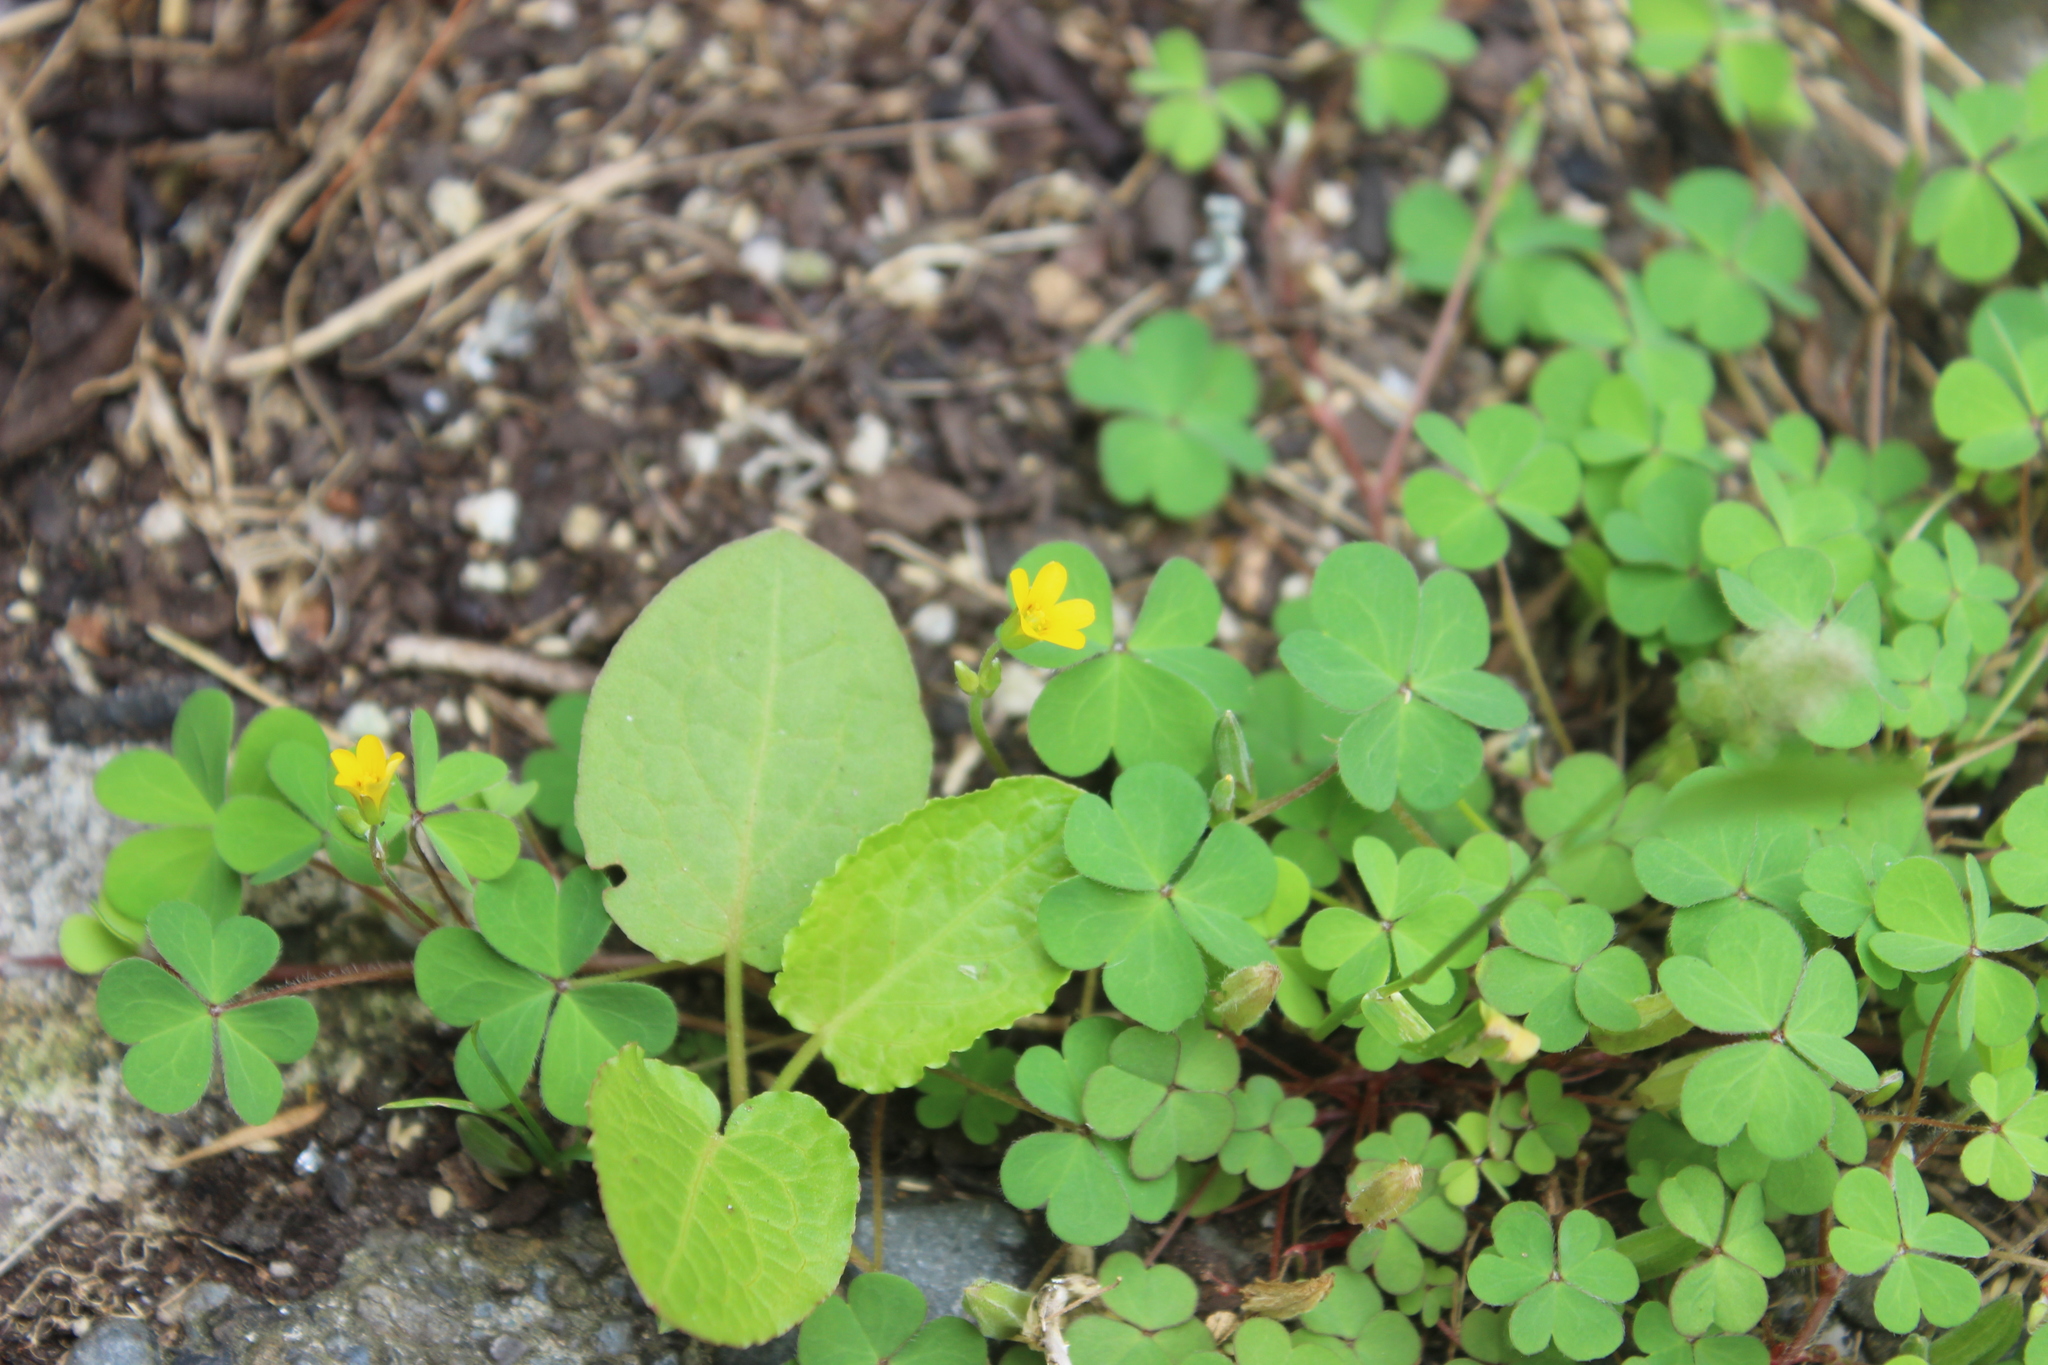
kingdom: Plantae
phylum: Tracheophyta
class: Magnoliopsida
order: Caryophyllales
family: Polygonaceae
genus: Rumex
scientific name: Rumex obtusifolius
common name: Bitter dock
